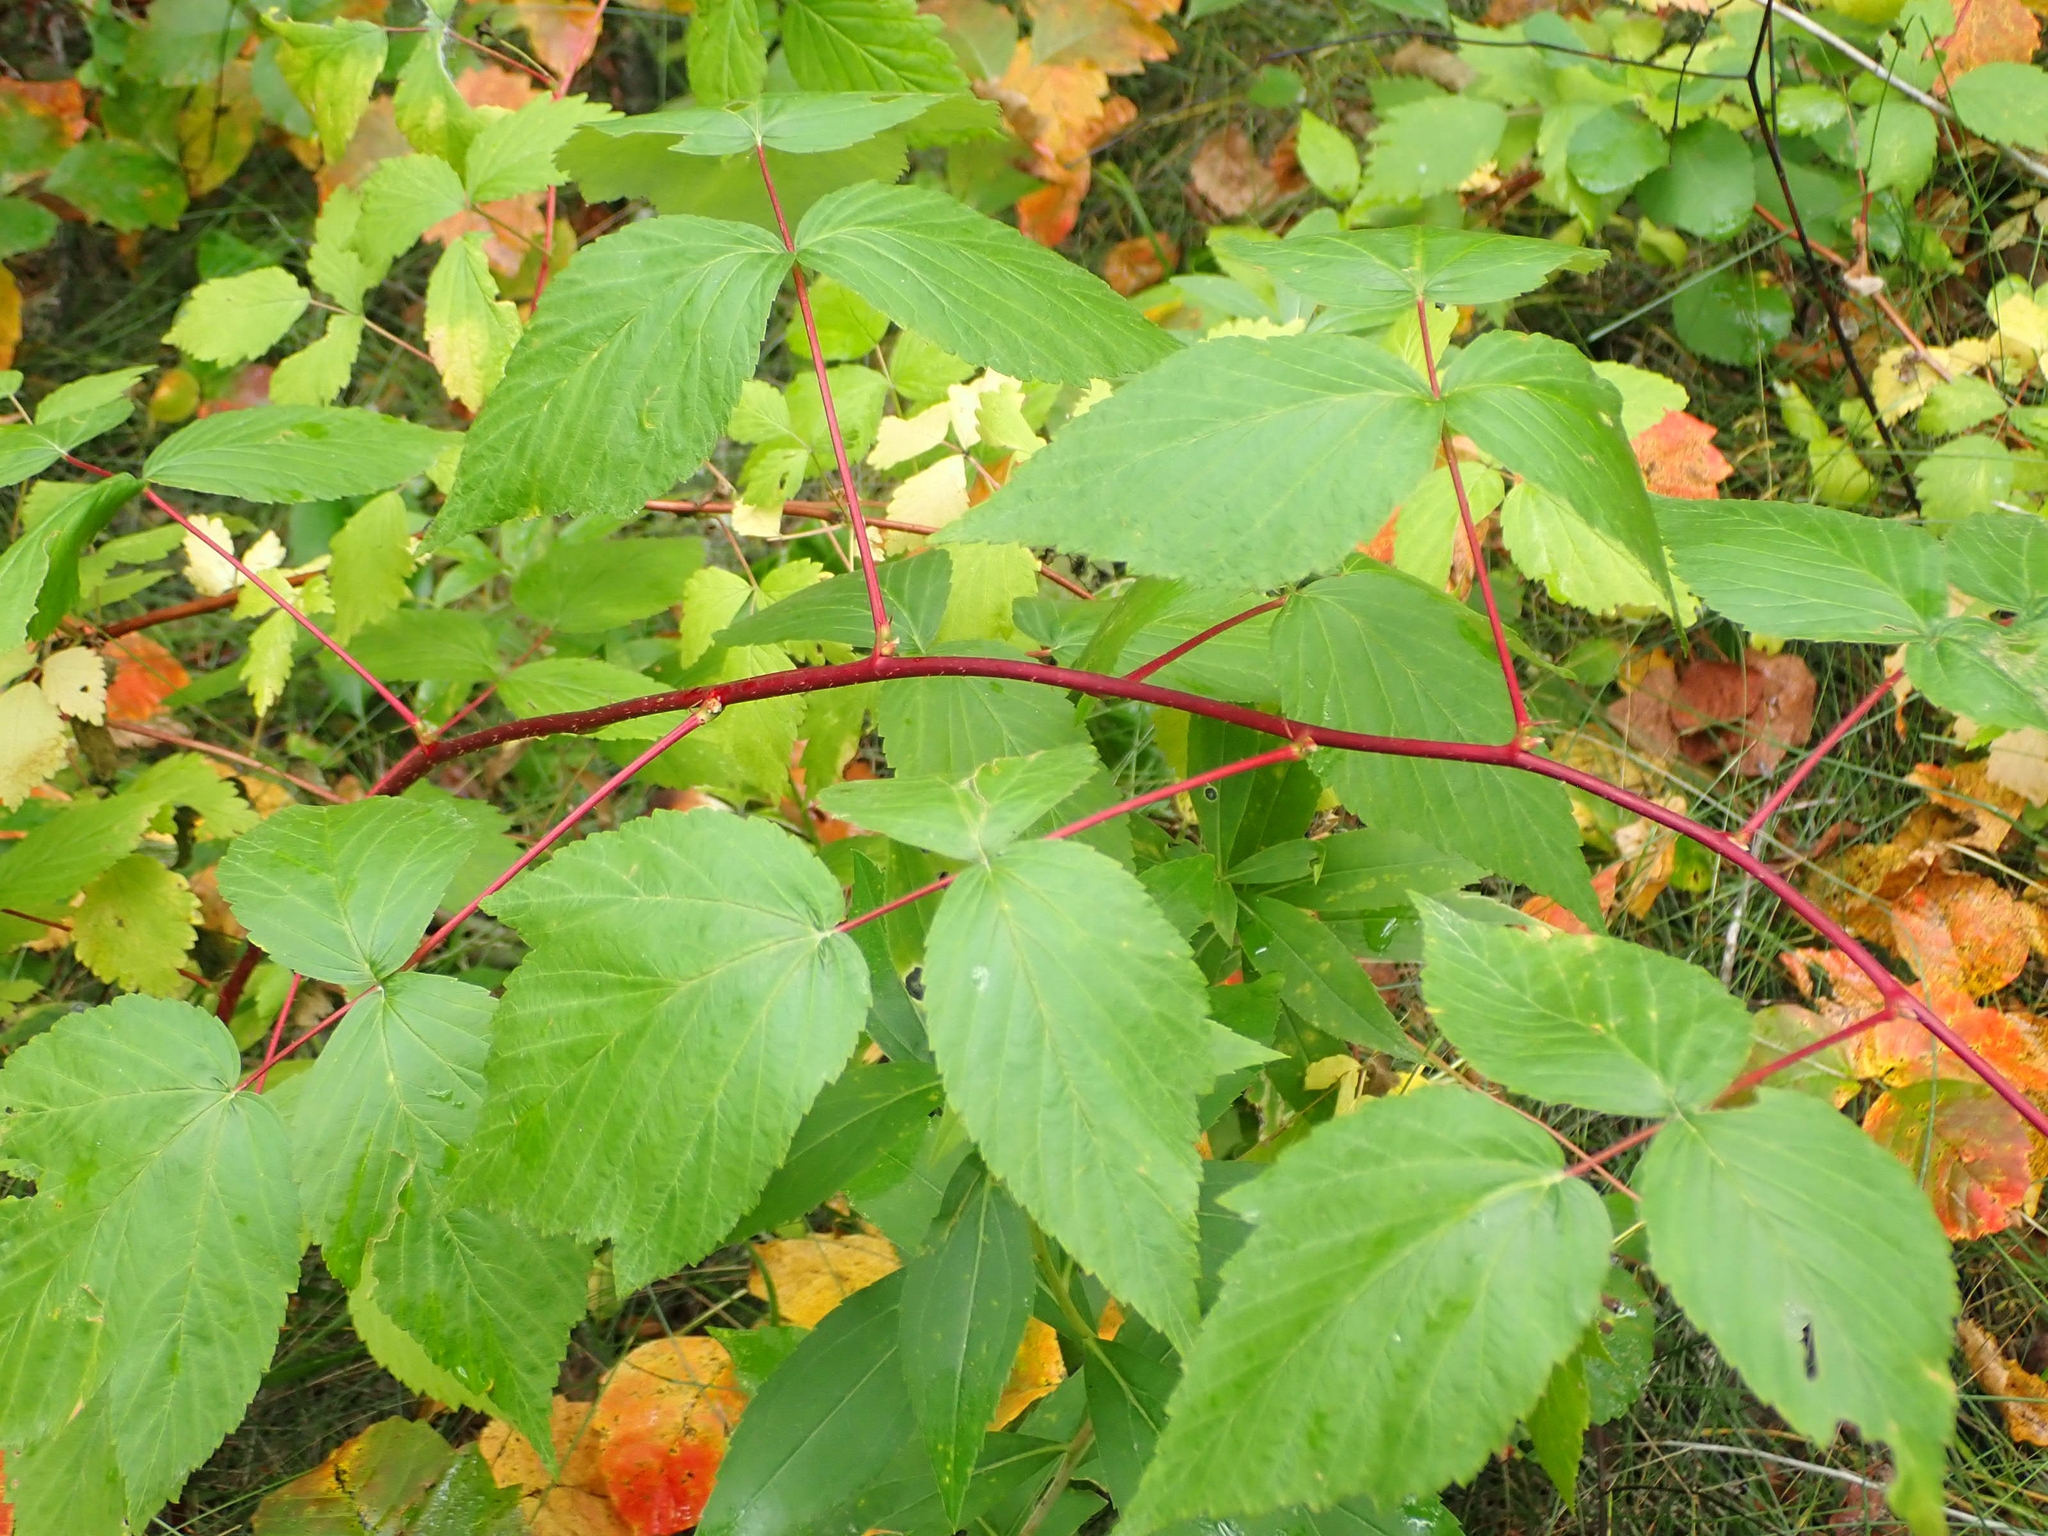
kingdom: Plantae
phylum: Tracheophyta
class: Magnoliopsida
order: Rosales
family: Rosaceae
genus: Rubus
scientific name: Rubus idaeus
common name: Raspberry
